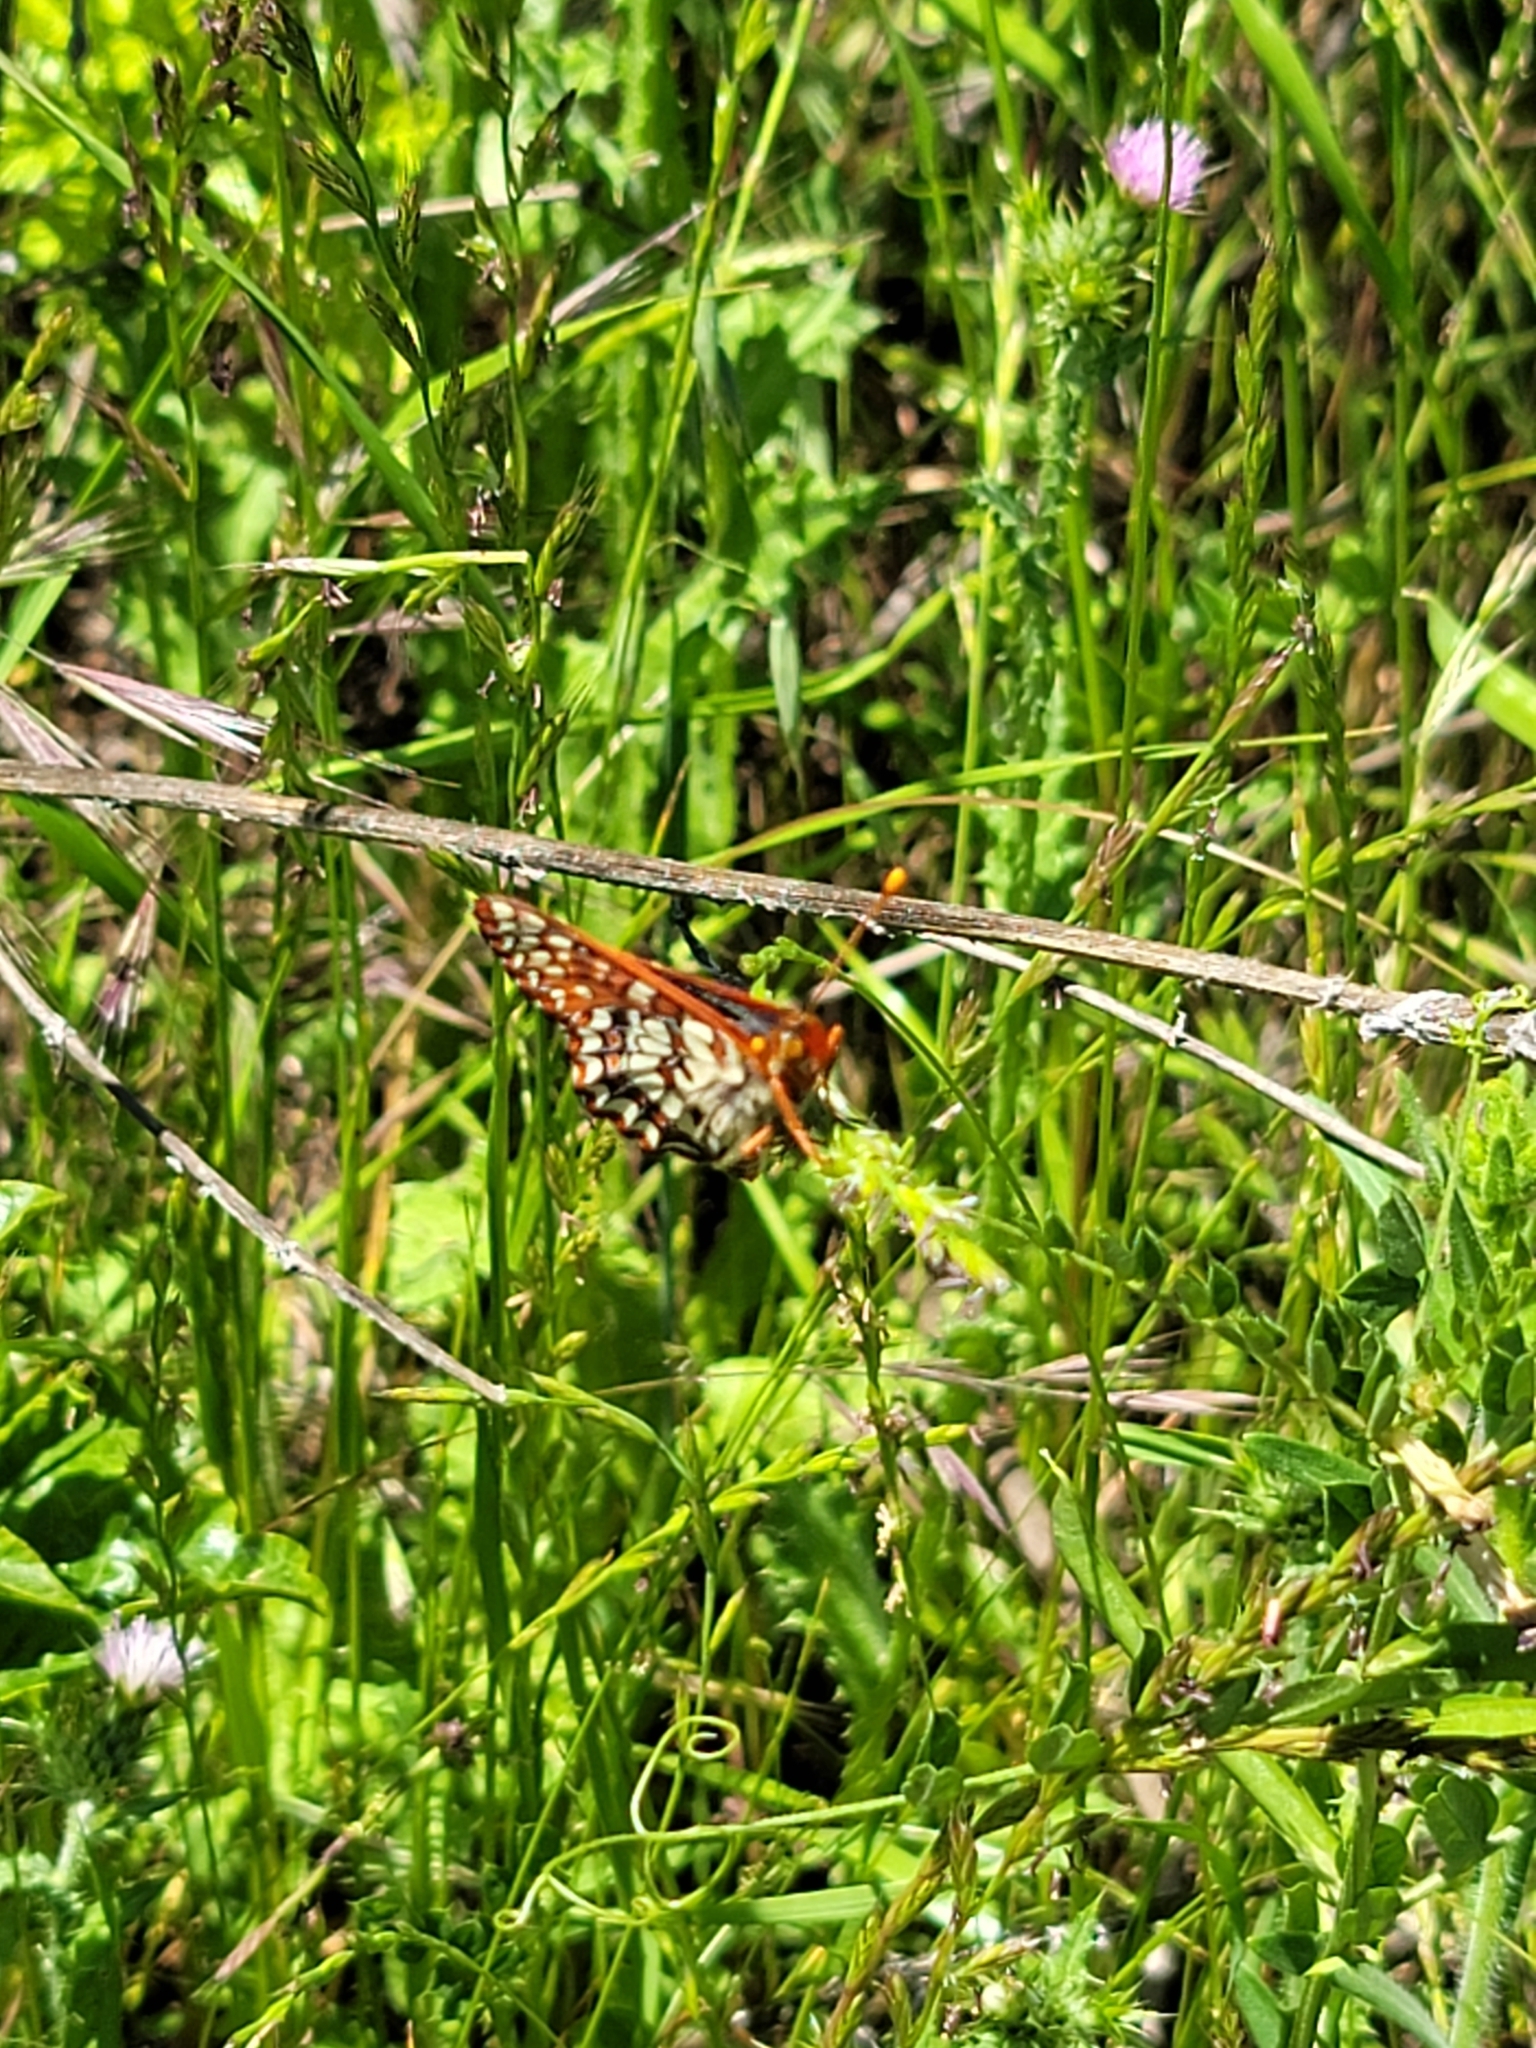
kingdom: Animalia
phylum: Arthropoda
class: Insecta
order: Lepidoptera
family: Nymphalidae
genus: Occidryas
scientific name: Occidryas chalcedona
